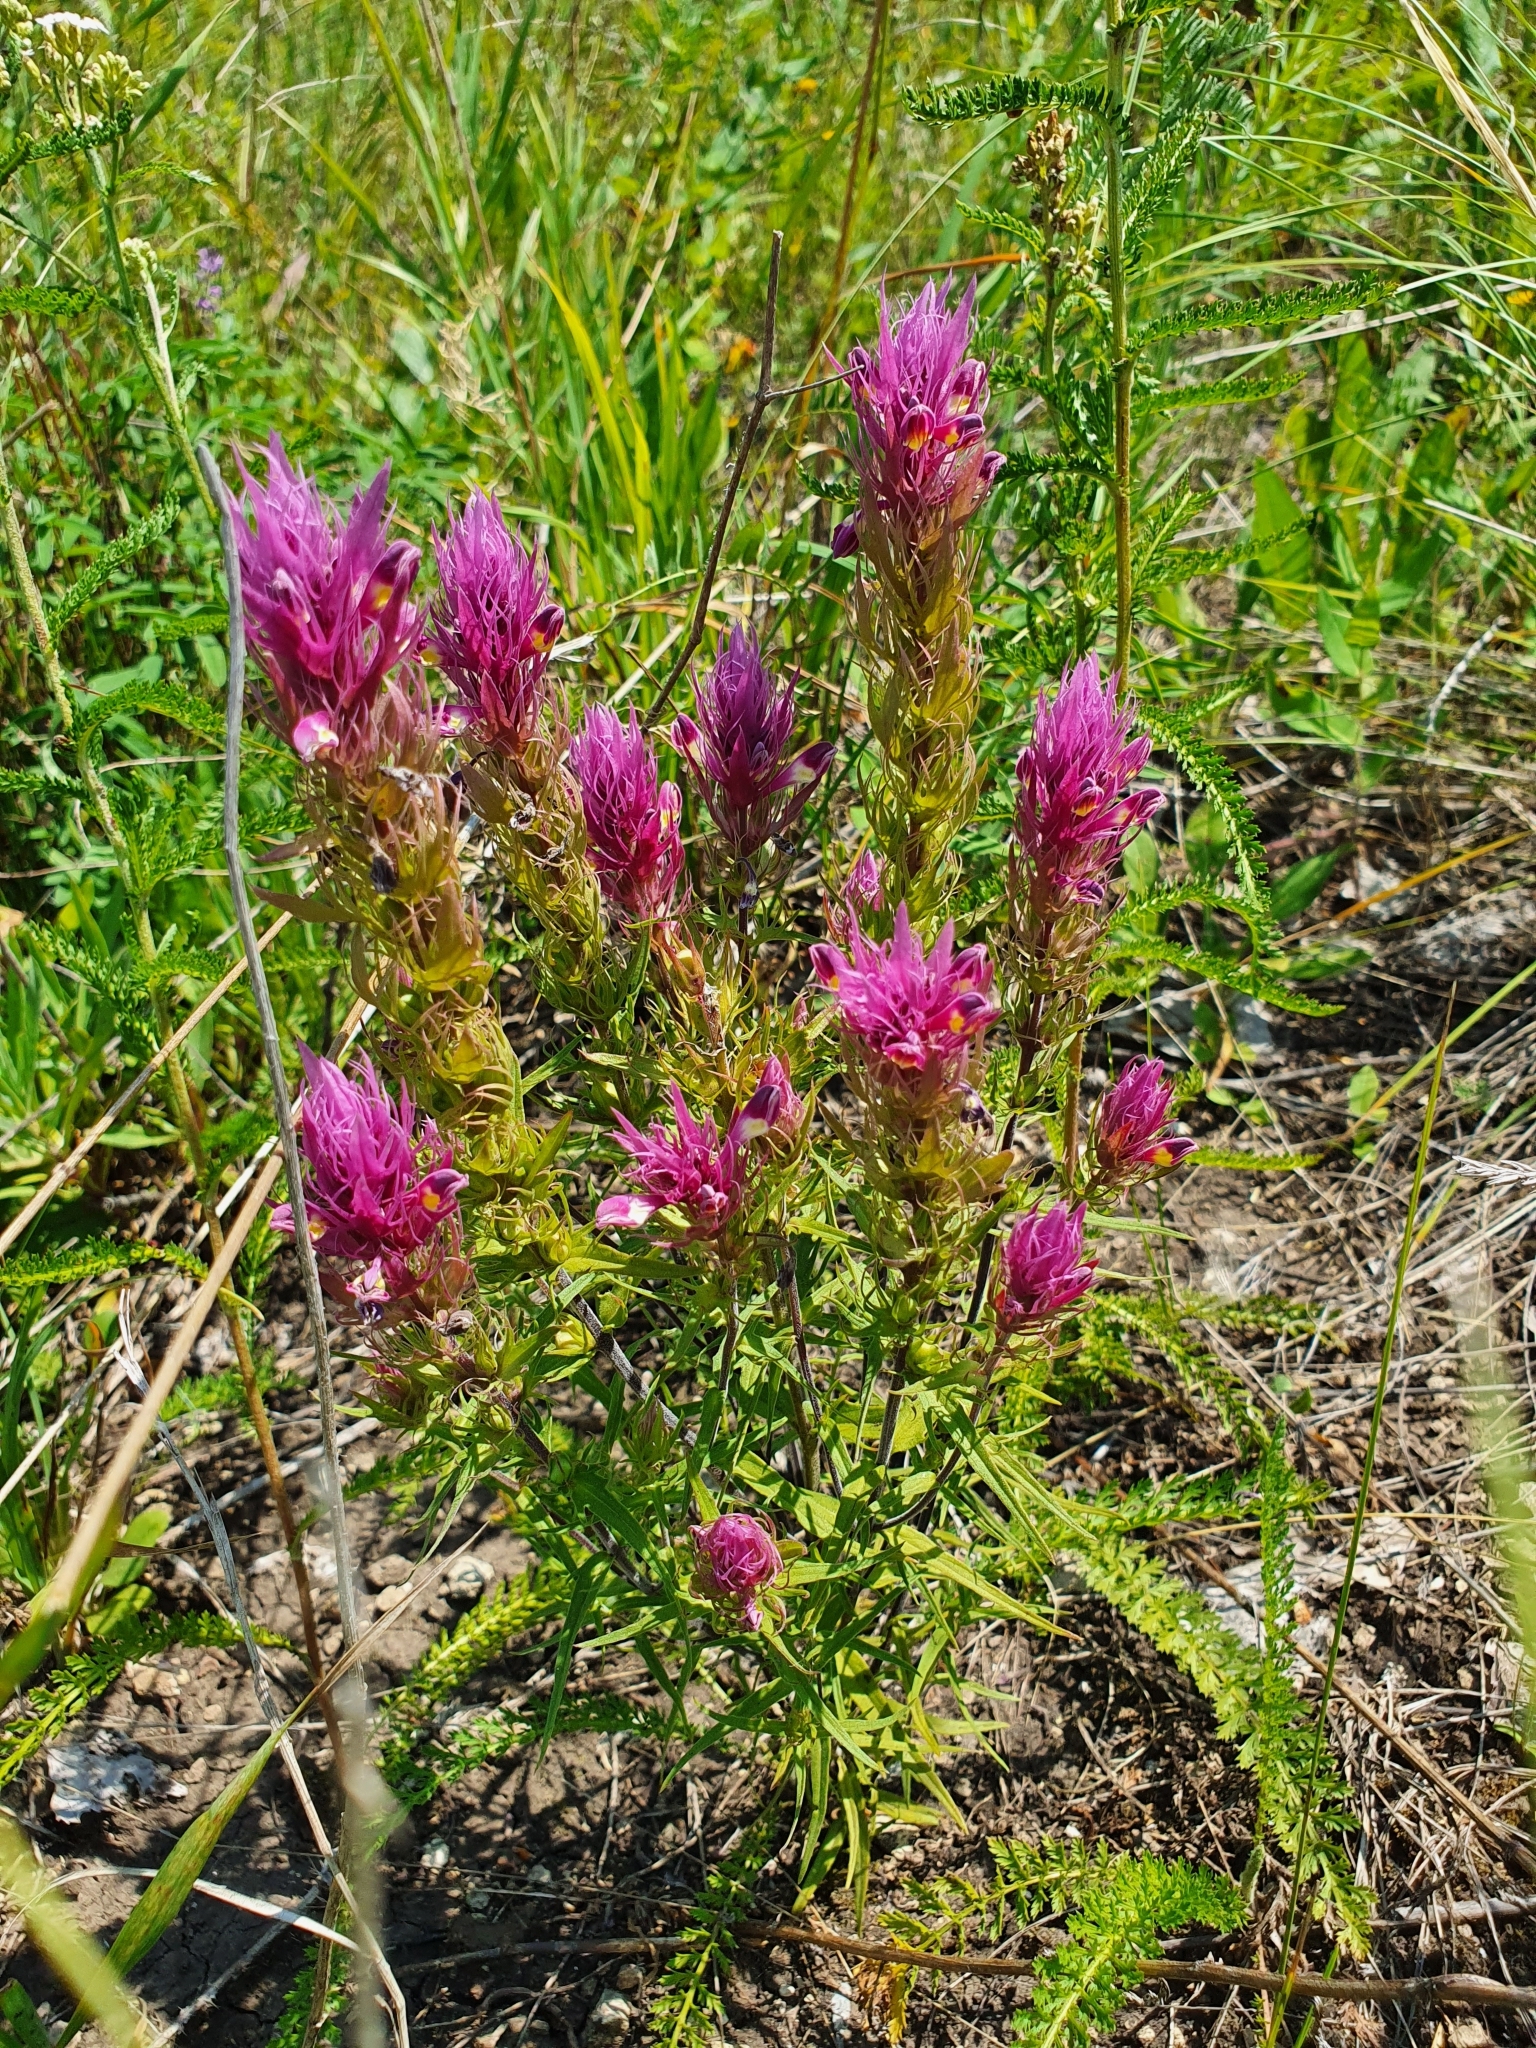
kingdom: Plantae
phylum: Tracheophyta
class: Magnoliopsida
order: Lamiales
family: Orobanchaceae
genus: Melampyrum
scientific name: Melampyrum arvense
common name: Field cow-wheat
